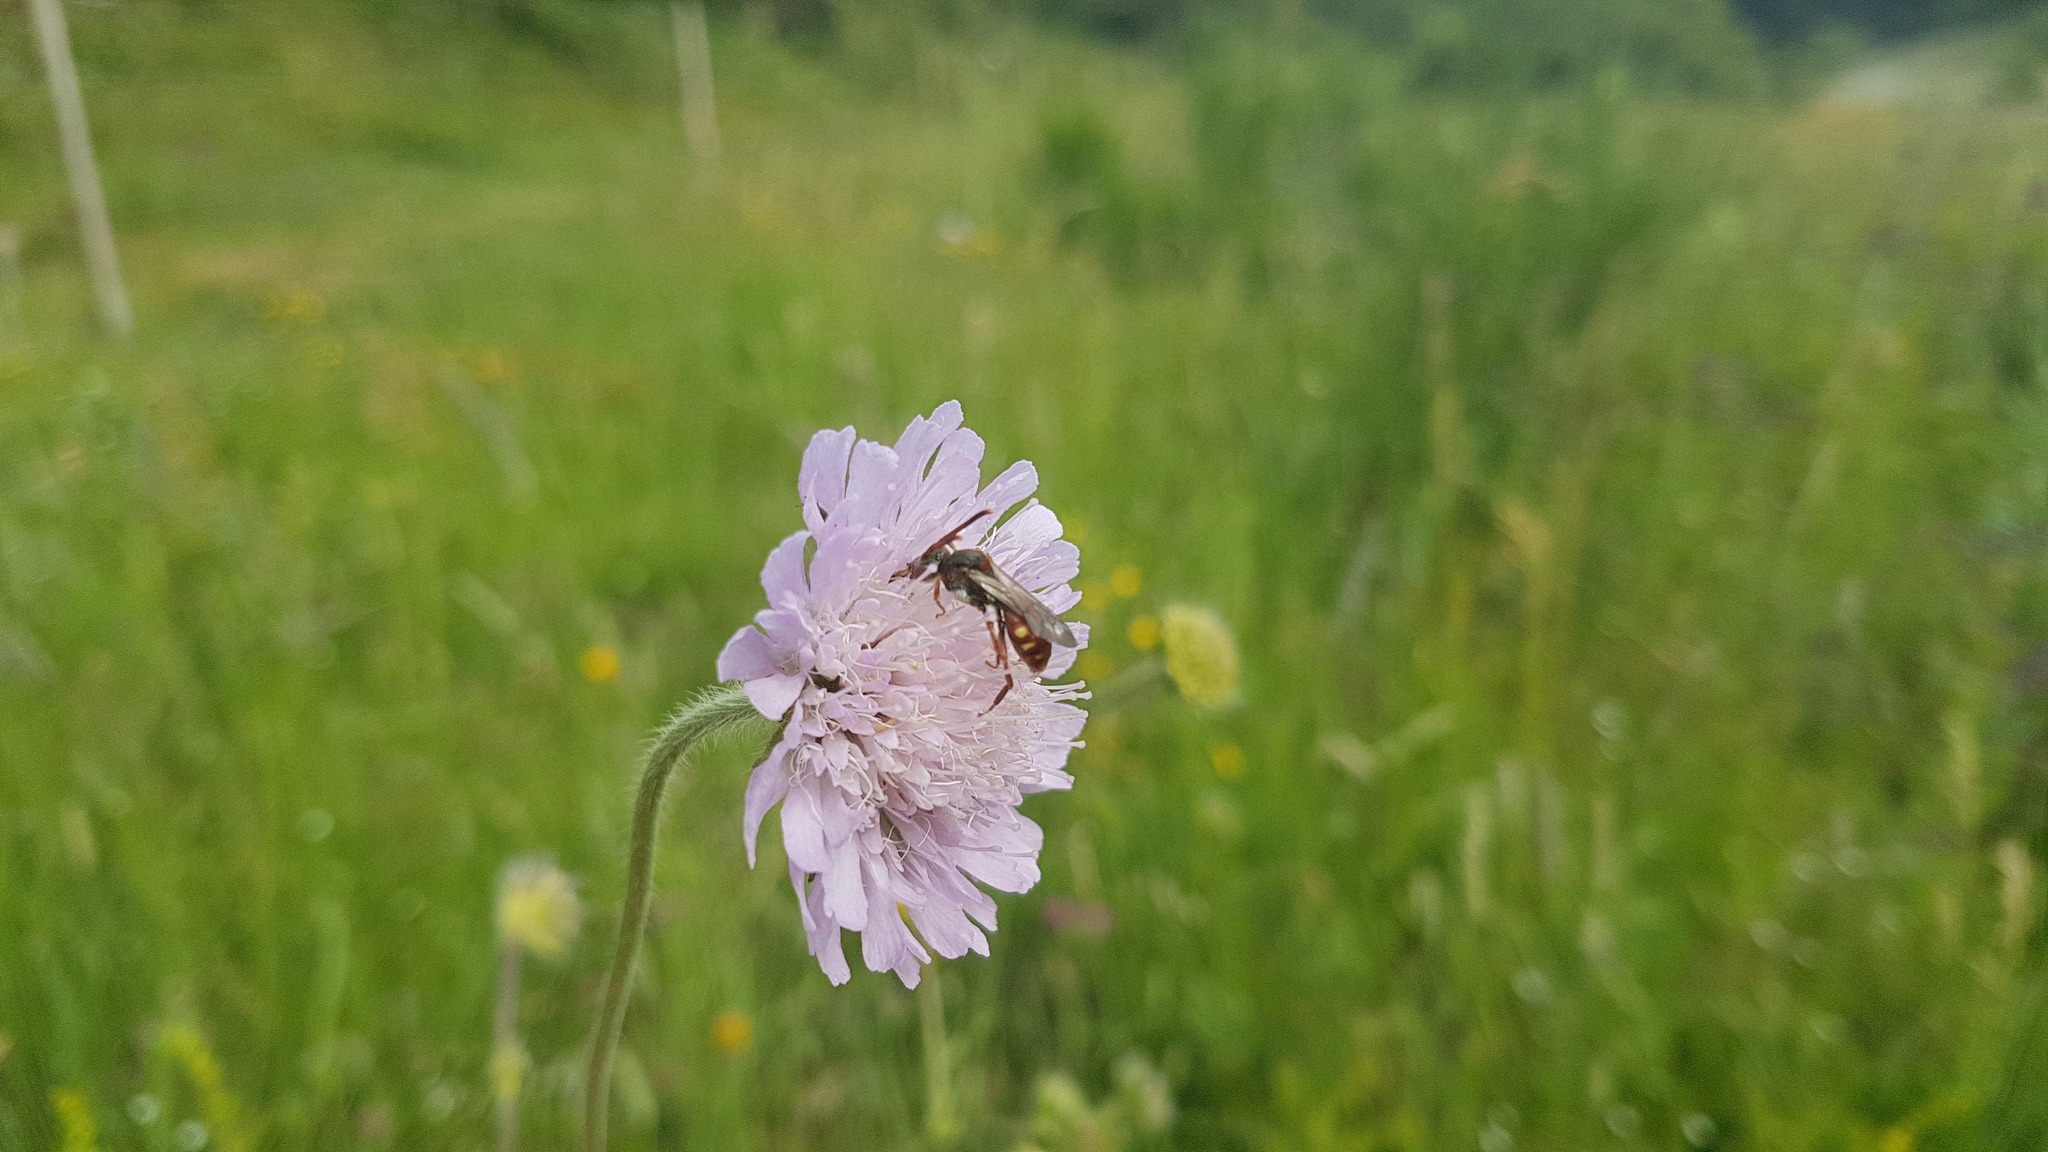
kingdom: Animalia
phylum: Arthropoda
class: Insecta
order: Hymenoptera
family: Apidae
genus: Nomada
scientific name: Nomada armata
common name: Armed nomad bee
